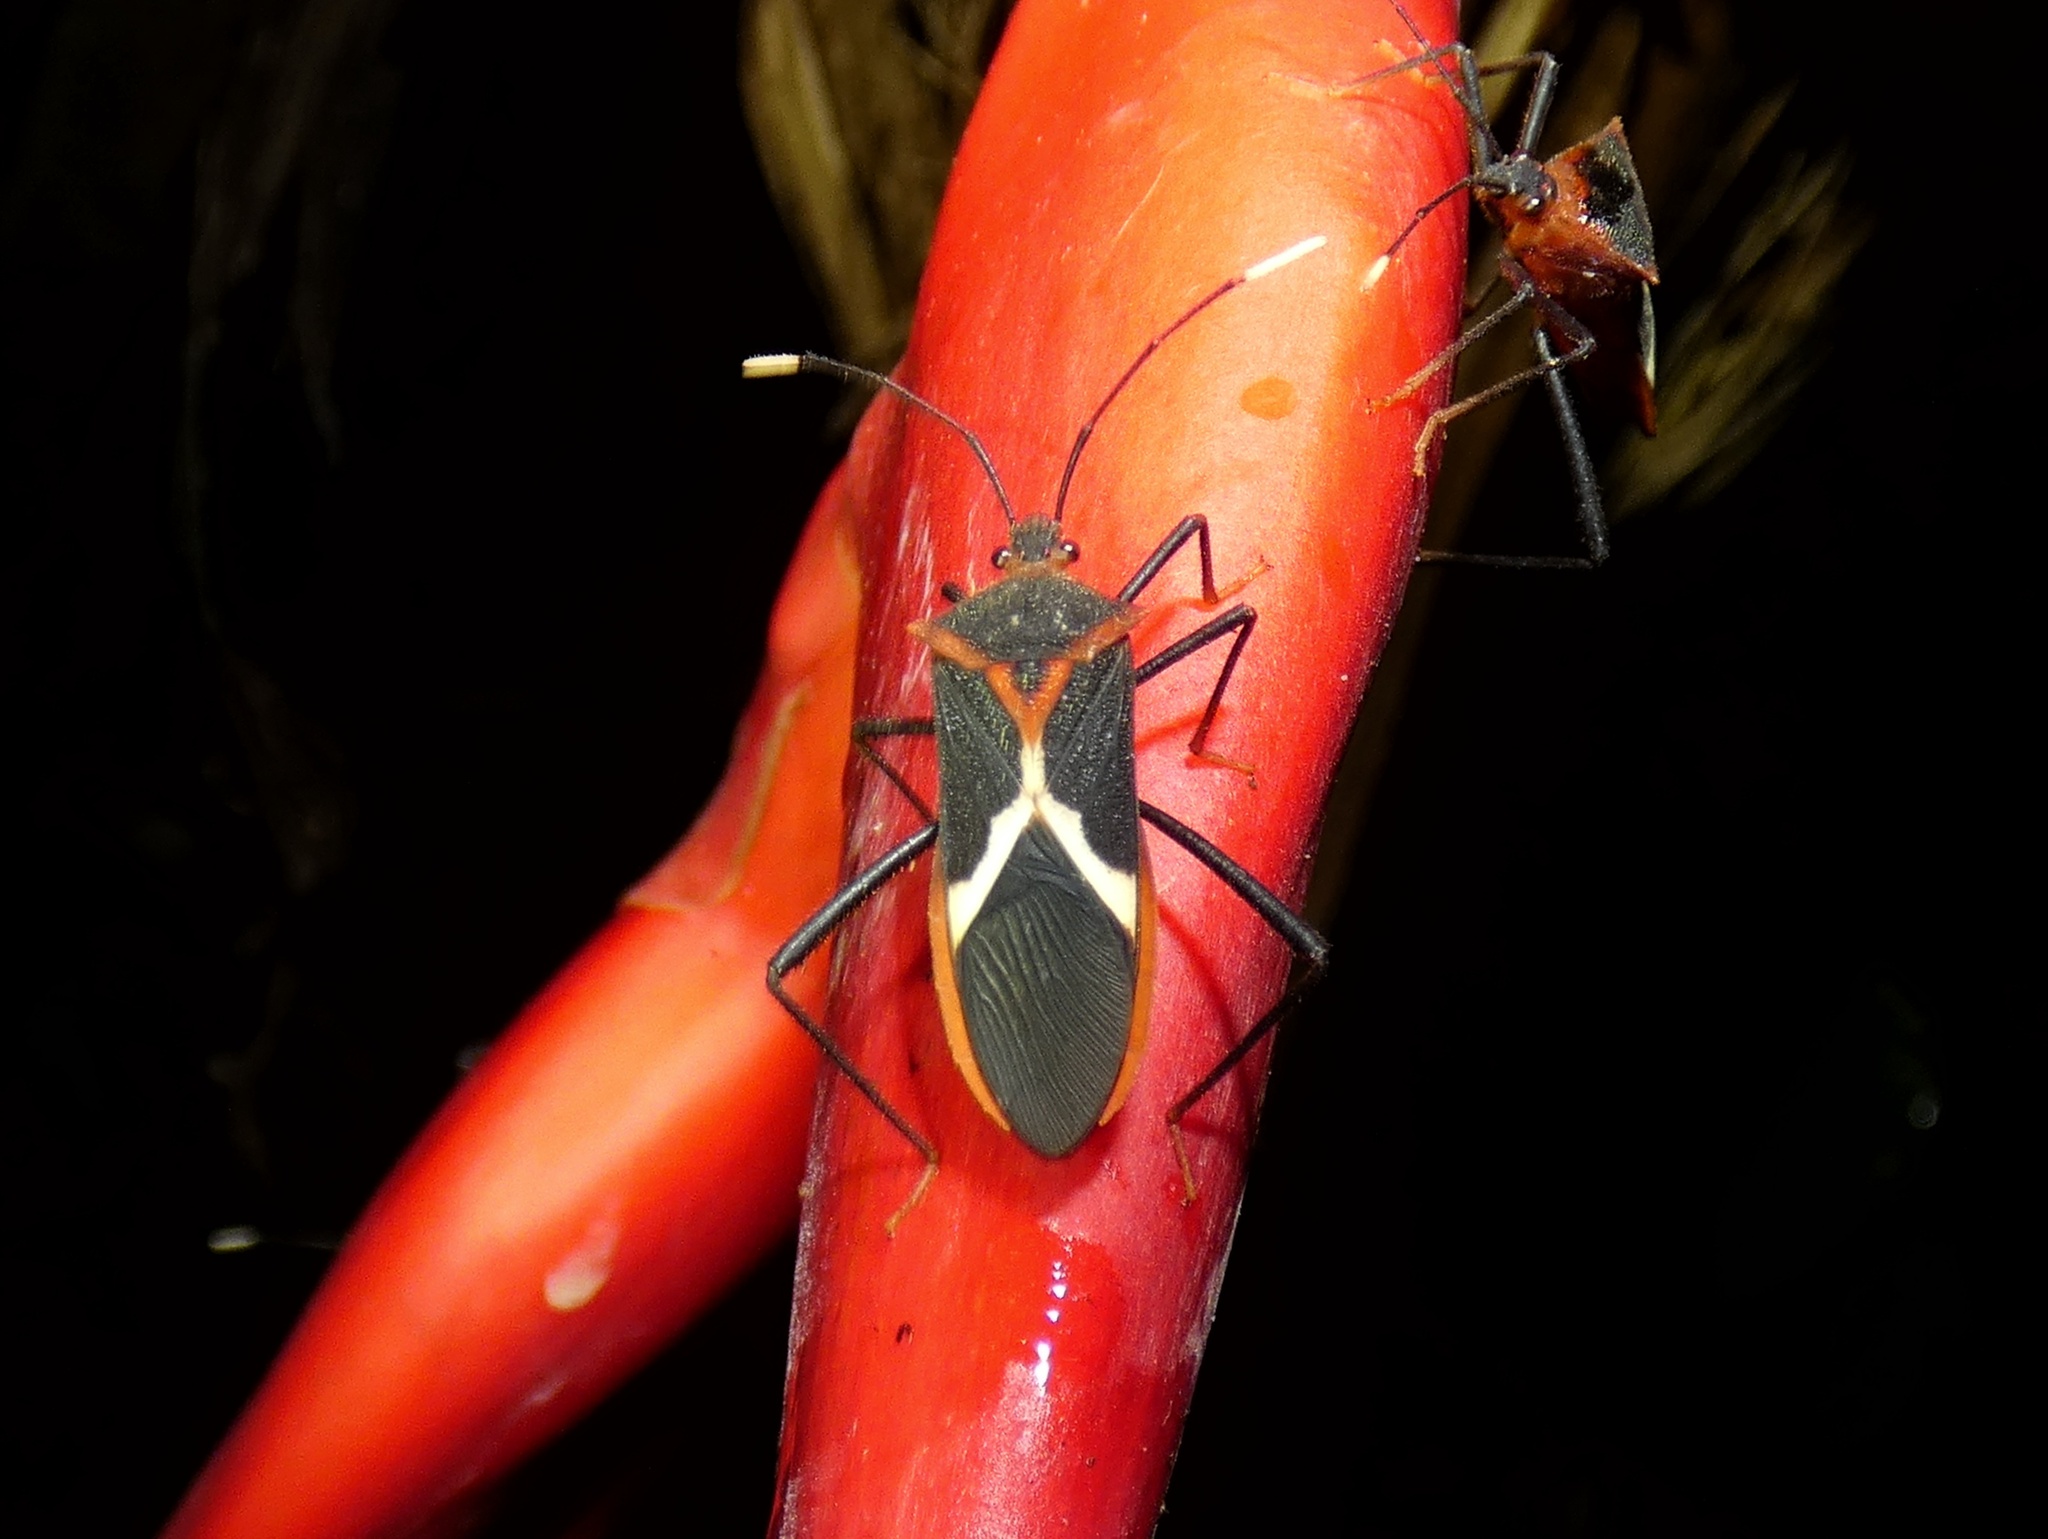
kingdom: Animalia
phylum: Arthropoda
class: Insecta
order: Hemiptera
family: Coreidae
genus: Leptoscelis
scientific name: Leptoscelis tricolor
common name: Heliconia bug
